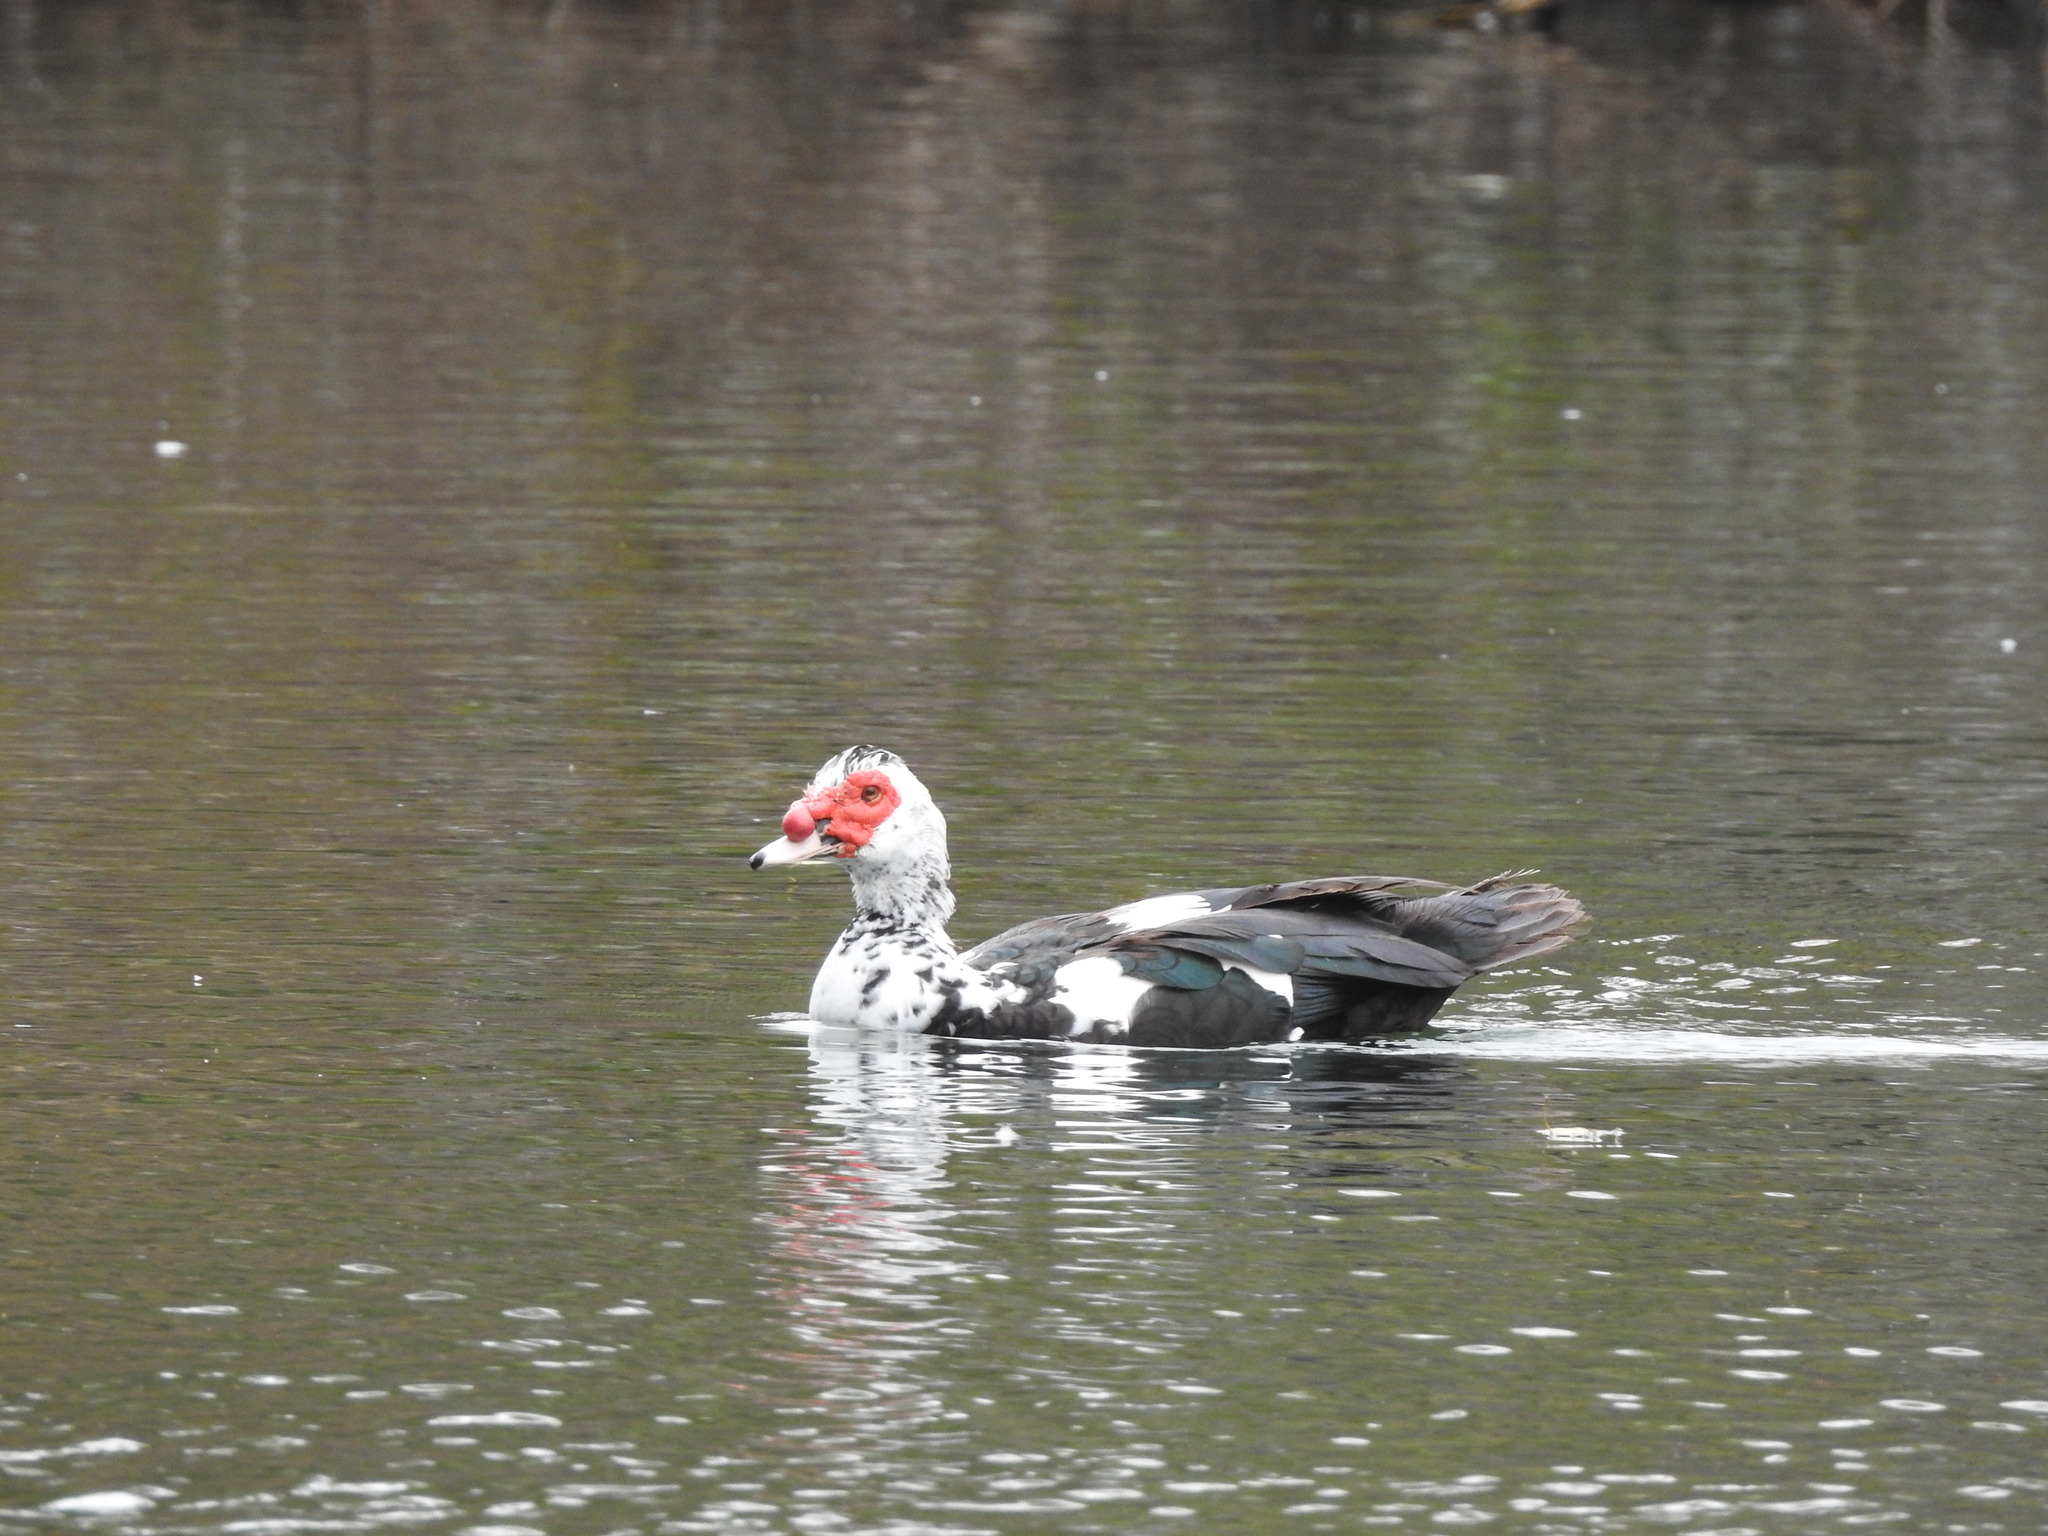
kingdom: Animalia
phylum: Chordata
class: Aves
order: Anseriformes
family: Anatidae
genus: Cairina
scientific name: Cairina moschata
